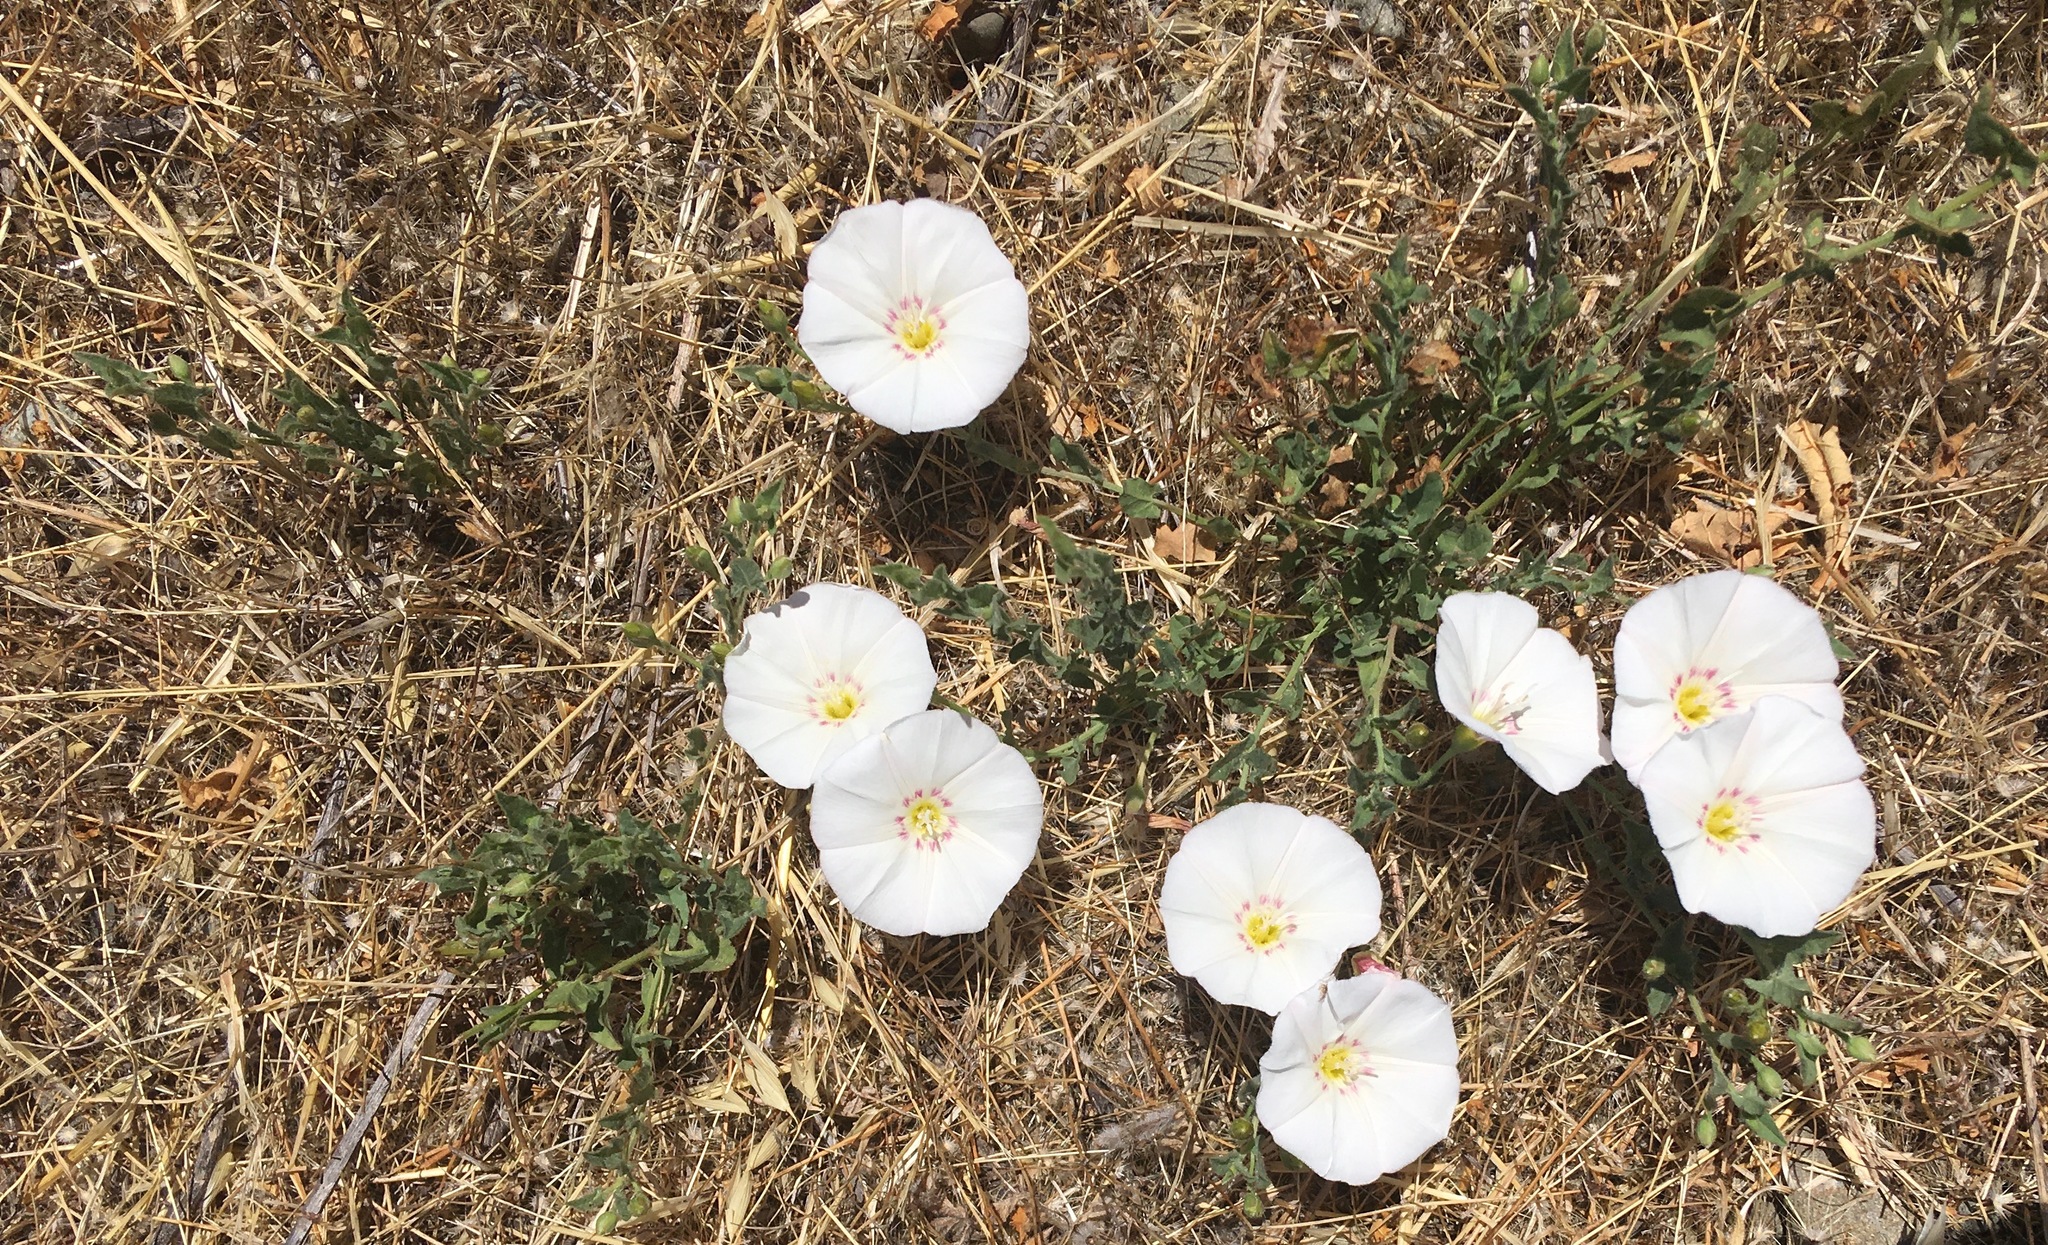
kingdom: Plantae
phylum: Tracheophyta
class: Magnoliopsida
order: Solanales
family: Convolvulaceae
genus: Convolvulus
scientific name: Convolvulus arvensis
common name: Field bindweed
